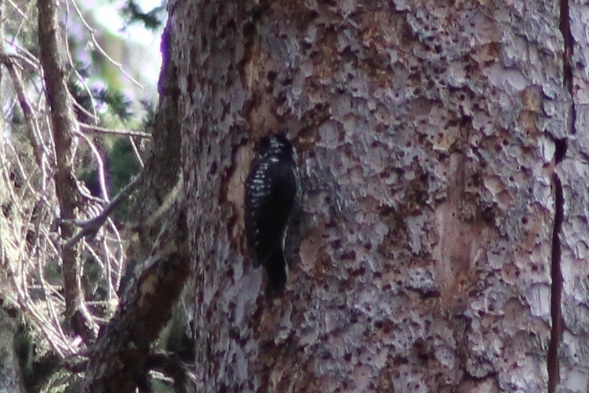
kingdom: Animalia
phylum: Chordata
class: Aves
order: Piciformes
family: Picidae
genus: Picoides
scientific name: Picoides dorsalis
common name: American three-toed woodpecker
